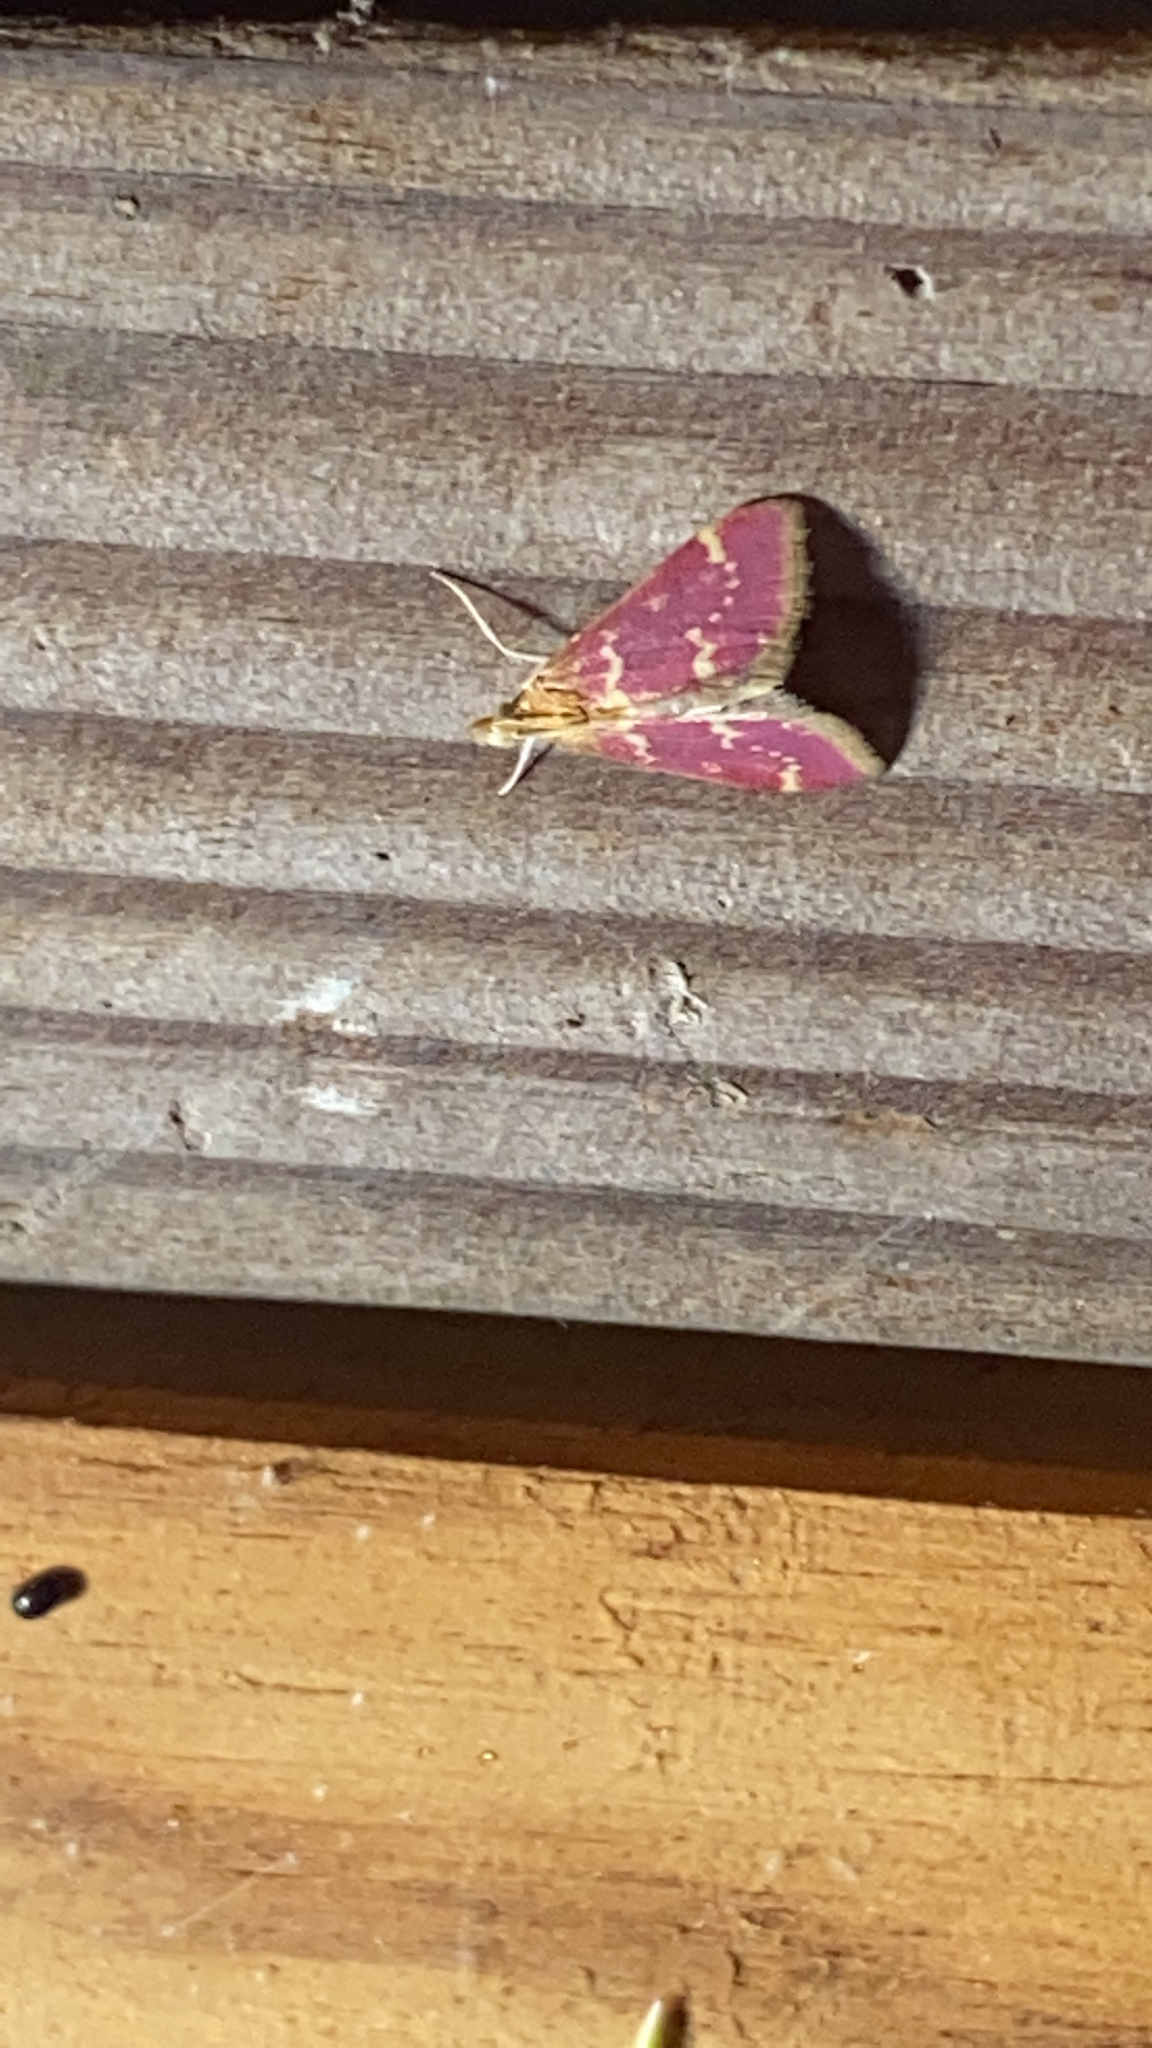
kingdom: Animalia
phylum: Arthropoda
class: Insecta
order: Lepidoptera
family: Crambidae
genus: Pyrausta
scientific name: Pyrausta signatalis
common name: Raspberry pyrausta moth
